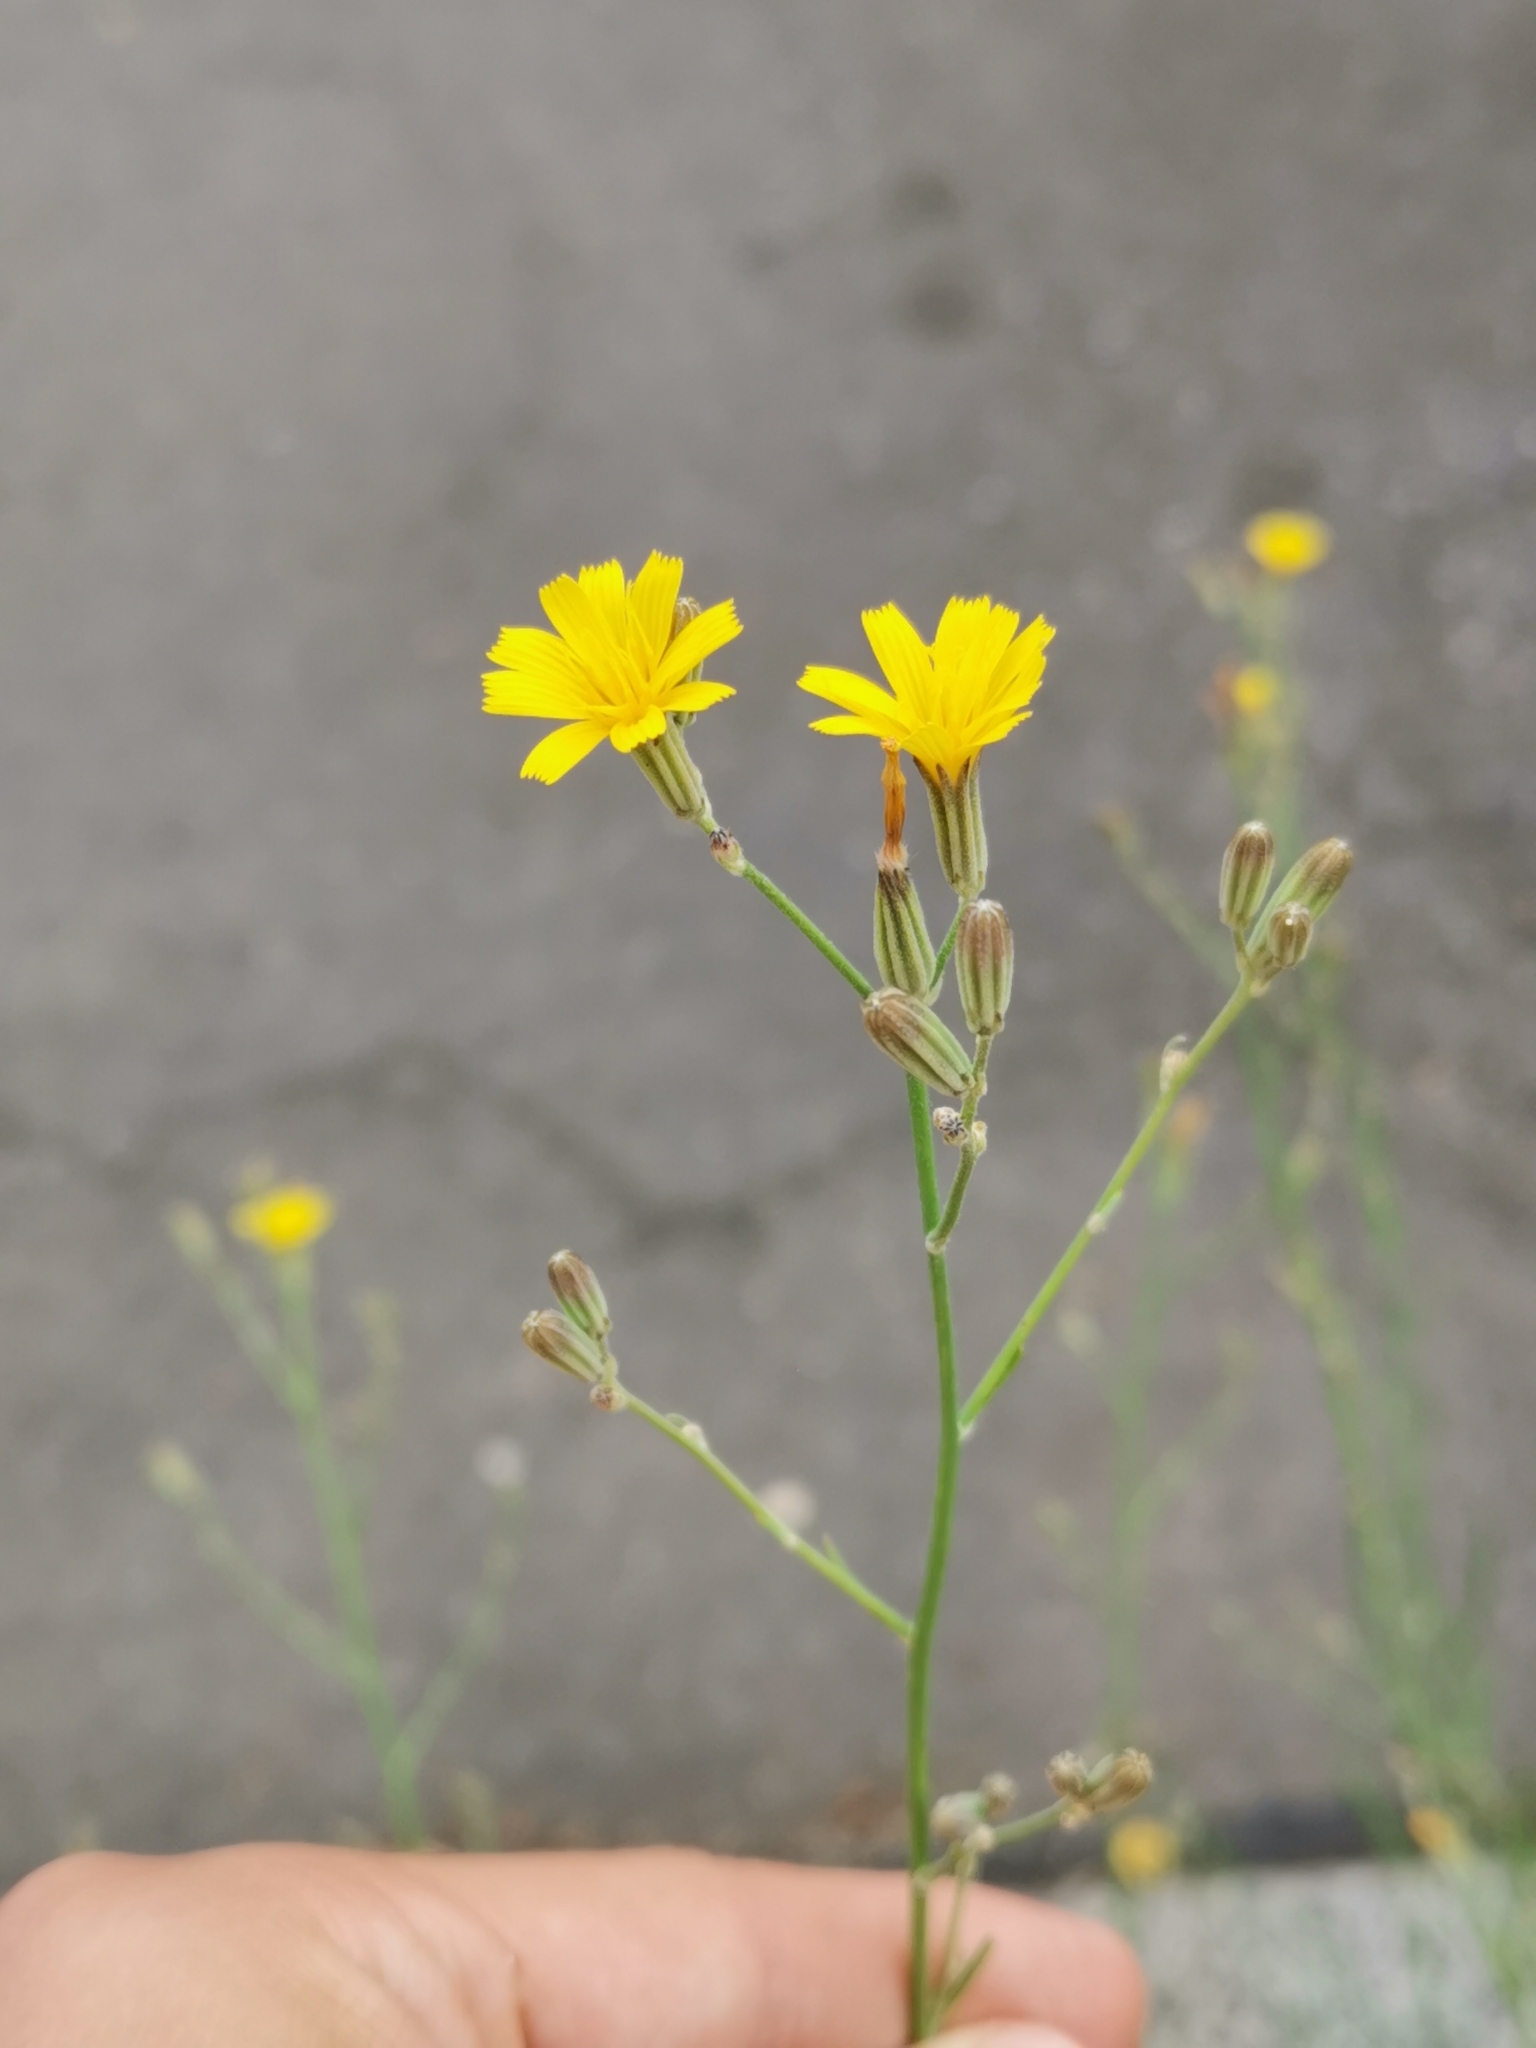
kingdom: Plantae
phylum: Tracheophyta
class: Magnoliopsida
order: Asterales
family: Asteraceae
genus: Chondrilla
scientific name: Chondrilla juncea
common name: Skeleton weed
